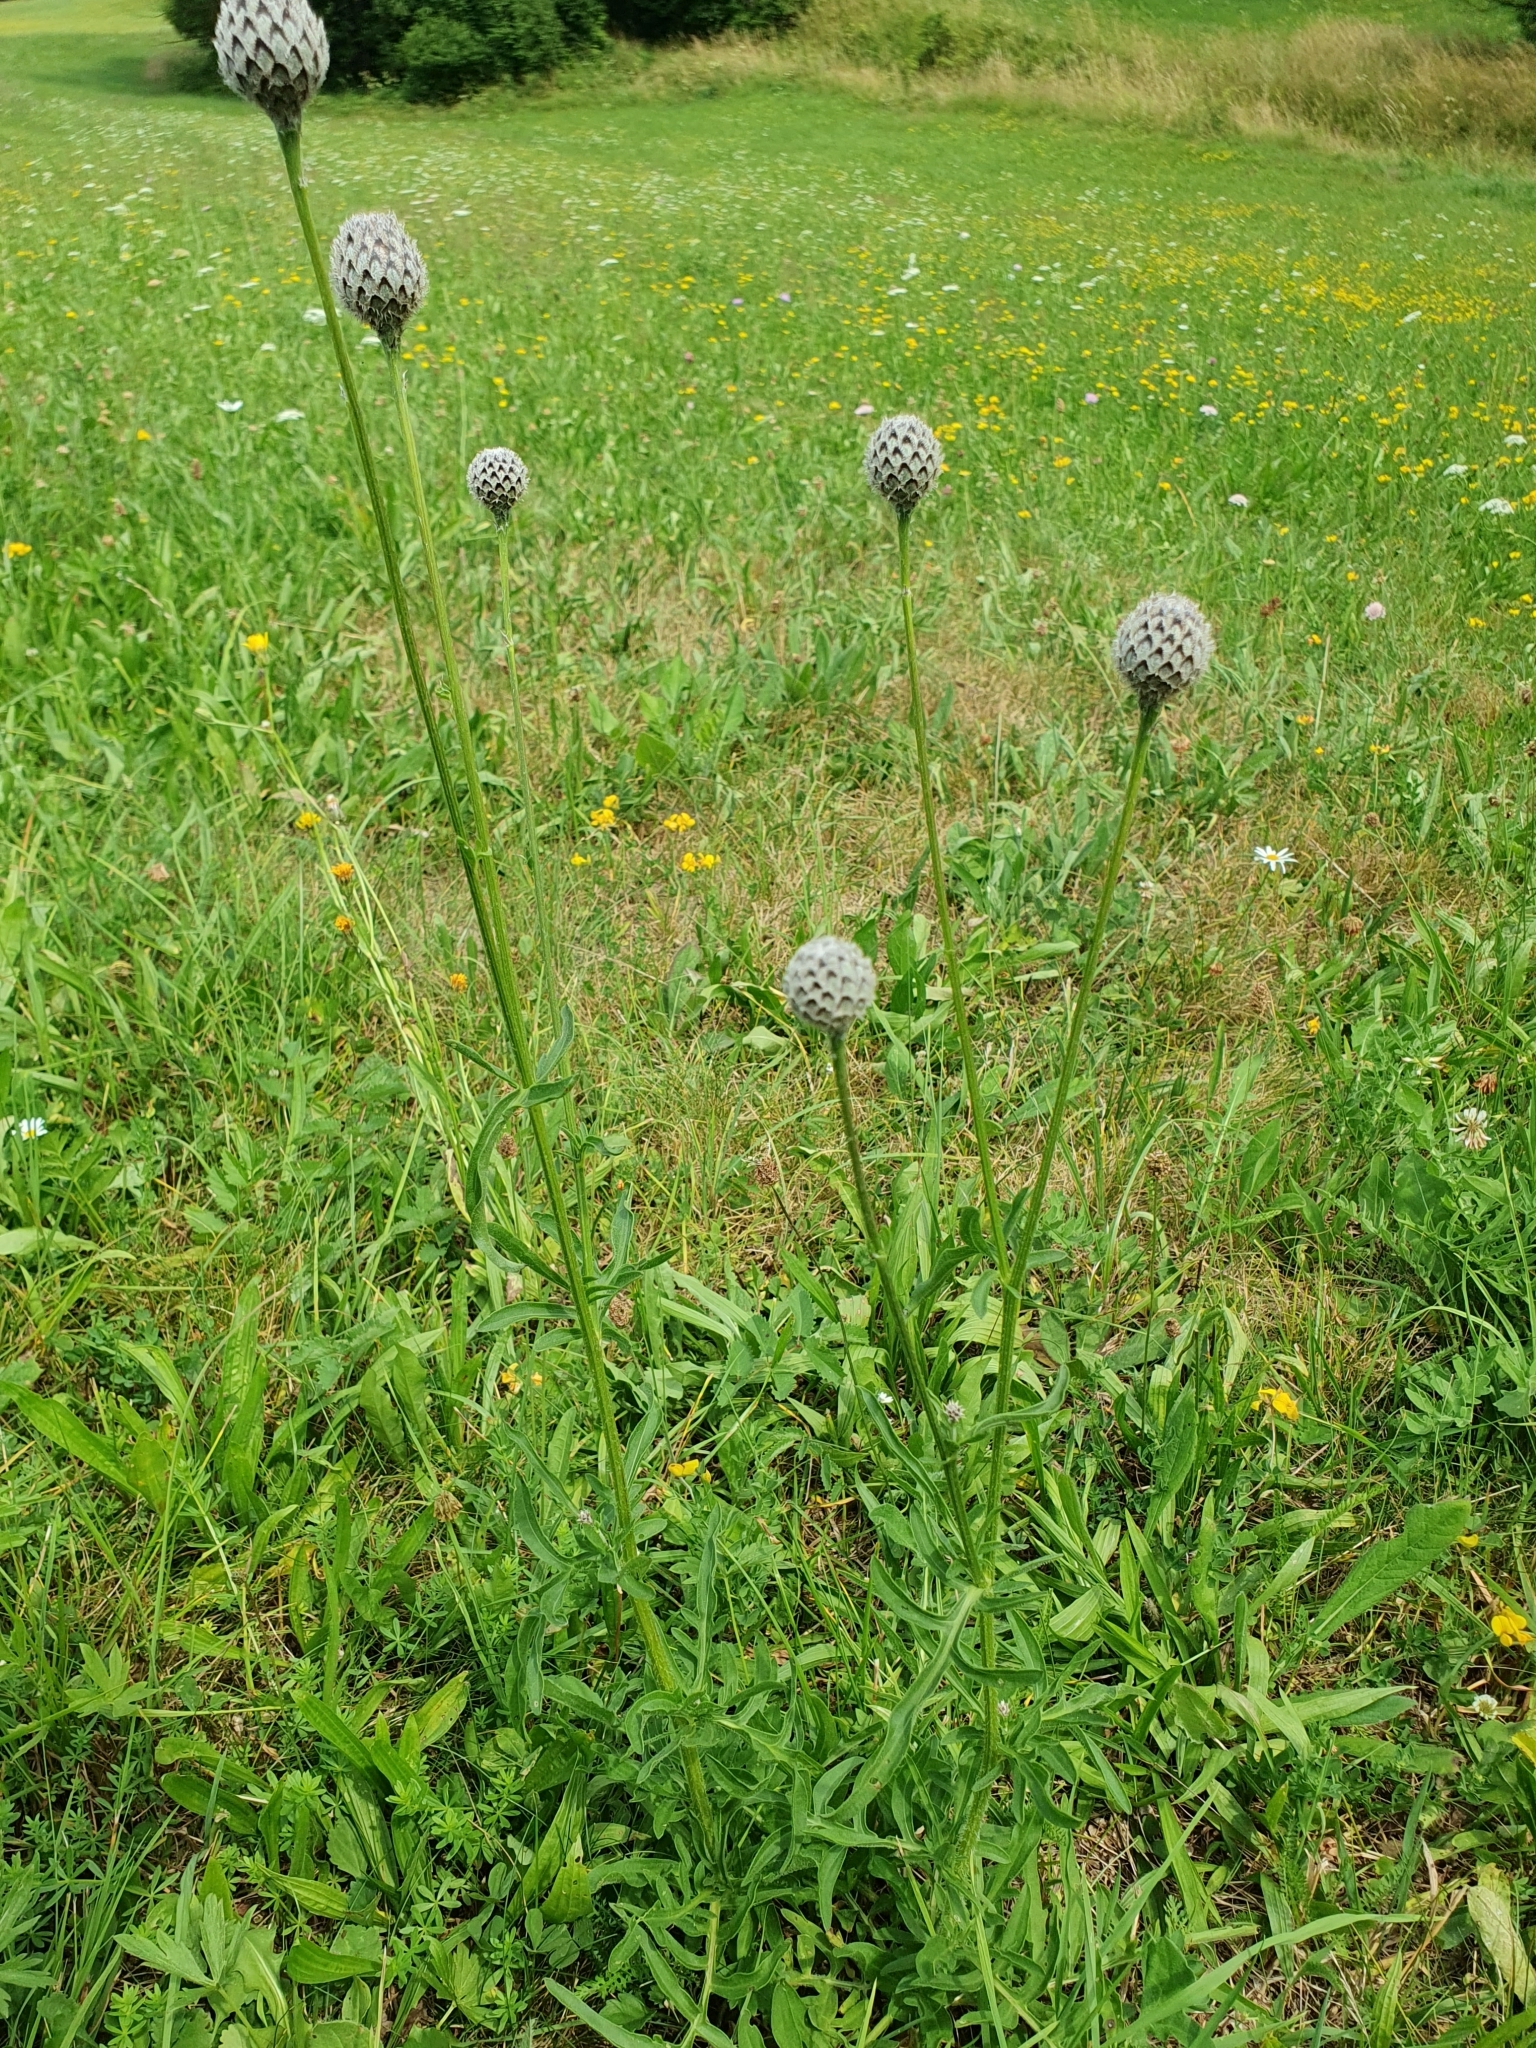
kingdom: Plantae
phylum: Tracheophyta
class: Magnoliopsida
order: Asterales
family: Asteraceae
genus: Centaurea
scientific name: Centaurea scabiosa
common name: Greater knapweed
